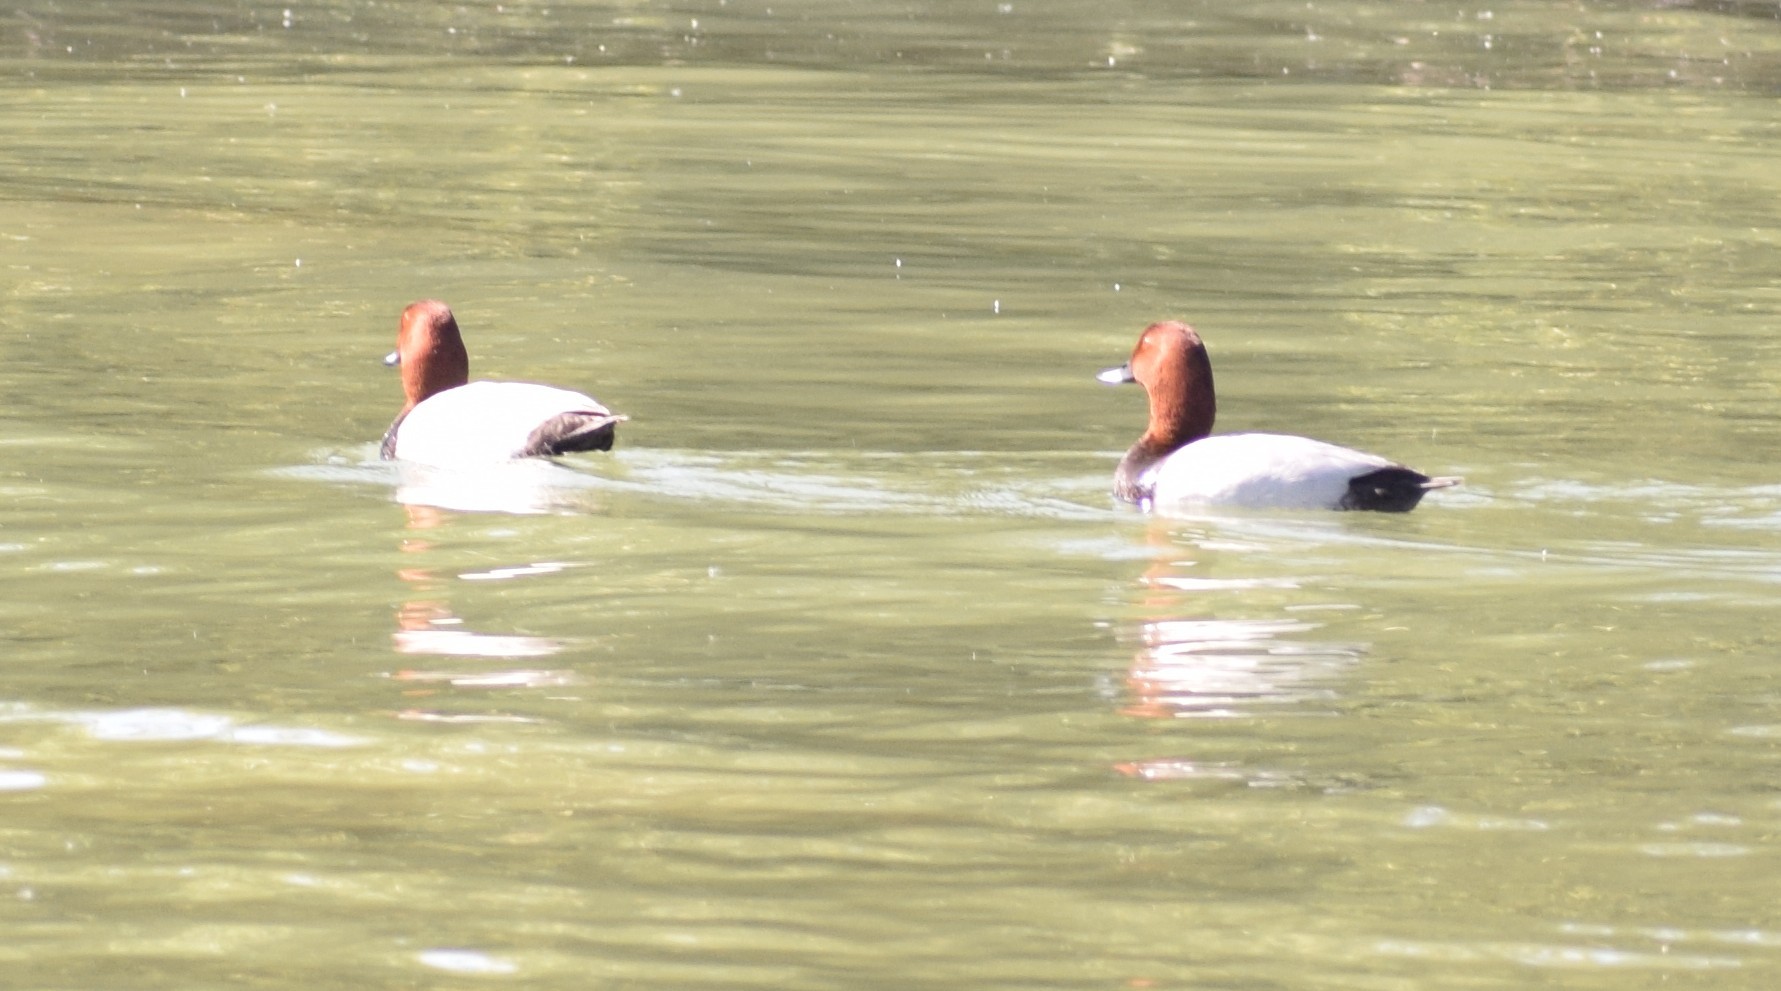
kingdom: Animalia
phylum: Chordata
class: Aves
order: Anseriformes
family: Anatidae
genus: Aythya
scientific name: Aythya ferina
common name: Common pochard
